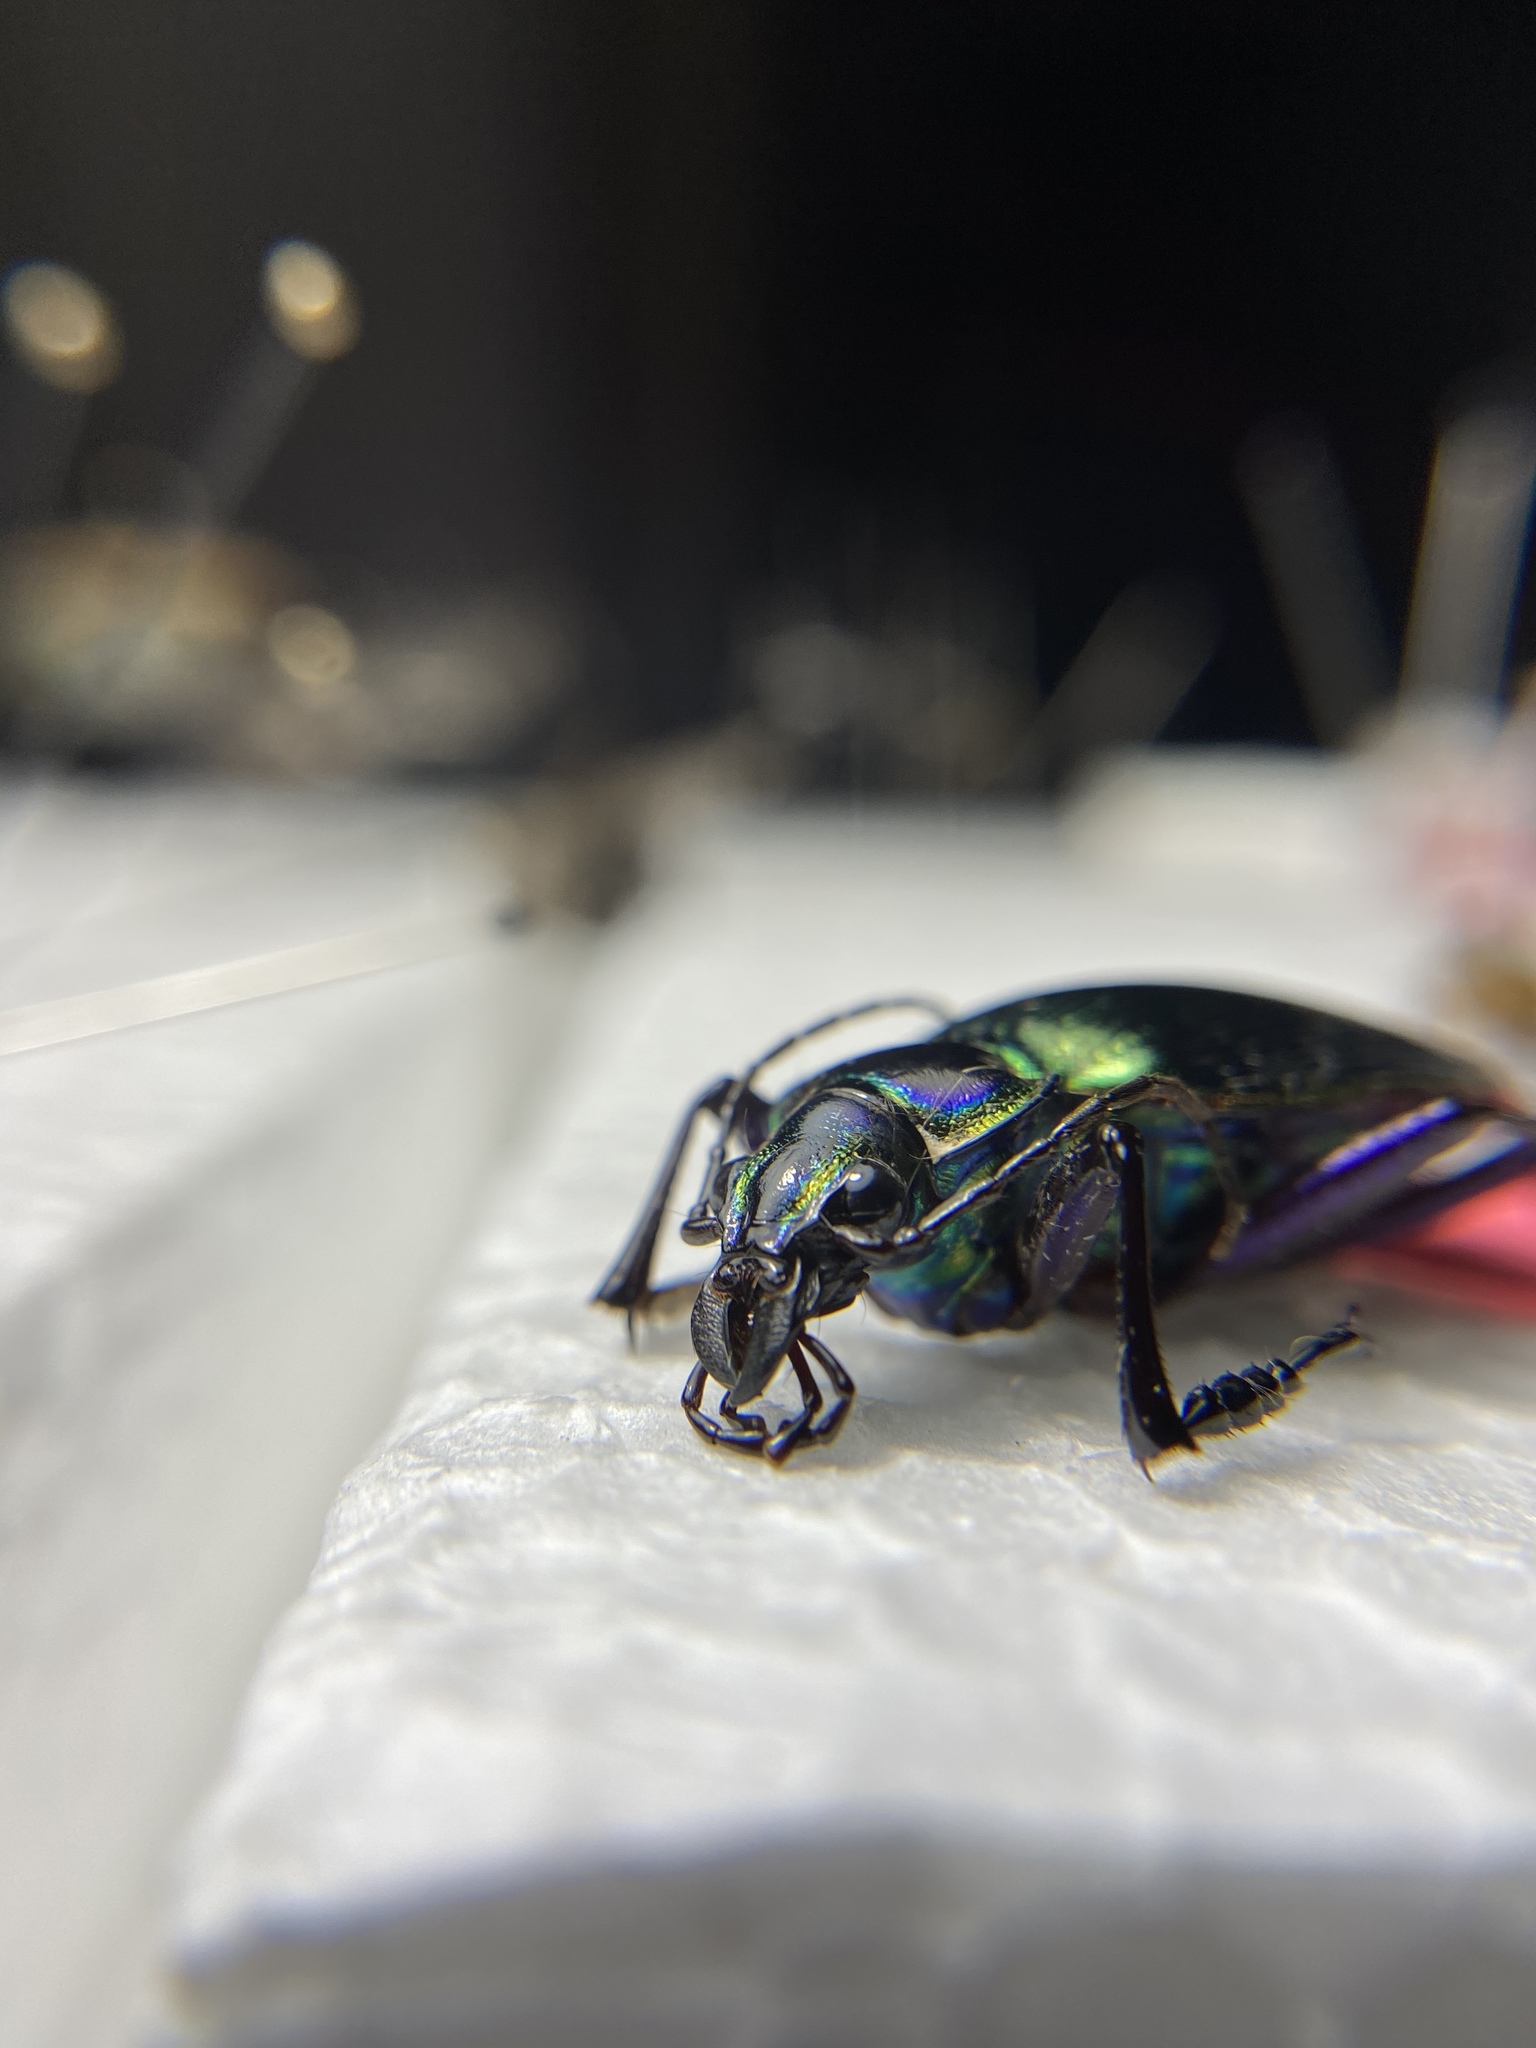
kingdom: Animalia
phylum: Arthropoda
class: Insecta
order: Coleoptera
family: Carabidae
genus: Calosoma
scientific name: Calosoma scrutator
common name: Fiery searcher beetle
